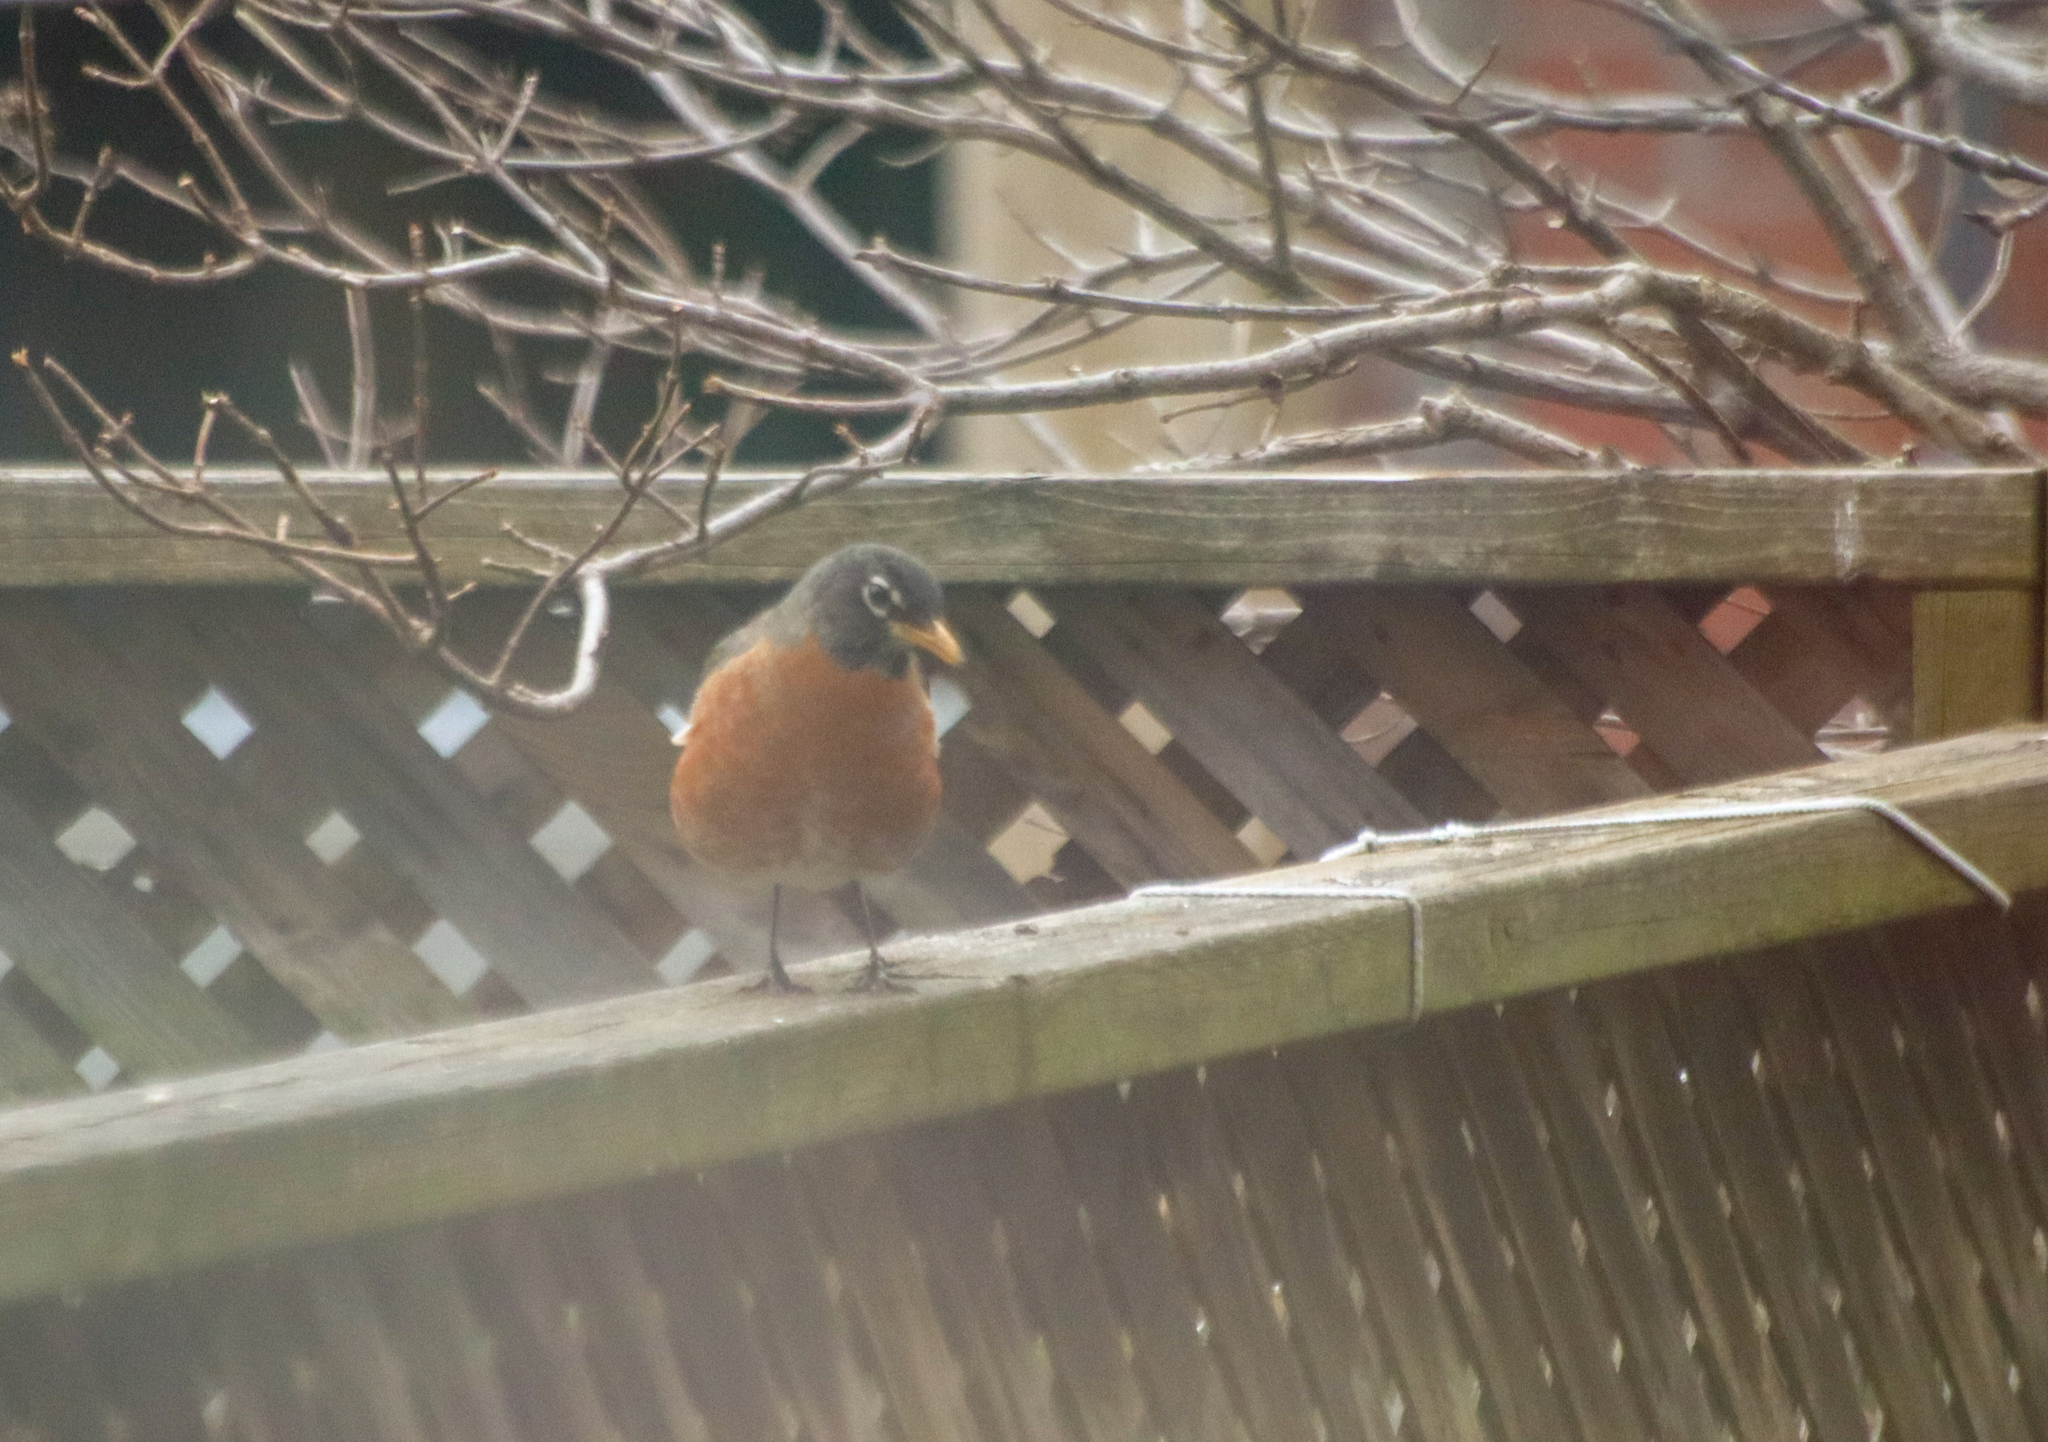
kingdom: Animalia
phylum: Chordata
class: Aves
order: Passeriformes
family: Turdidae
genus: Turdus
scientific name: Turdus migratorius
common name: American robin
